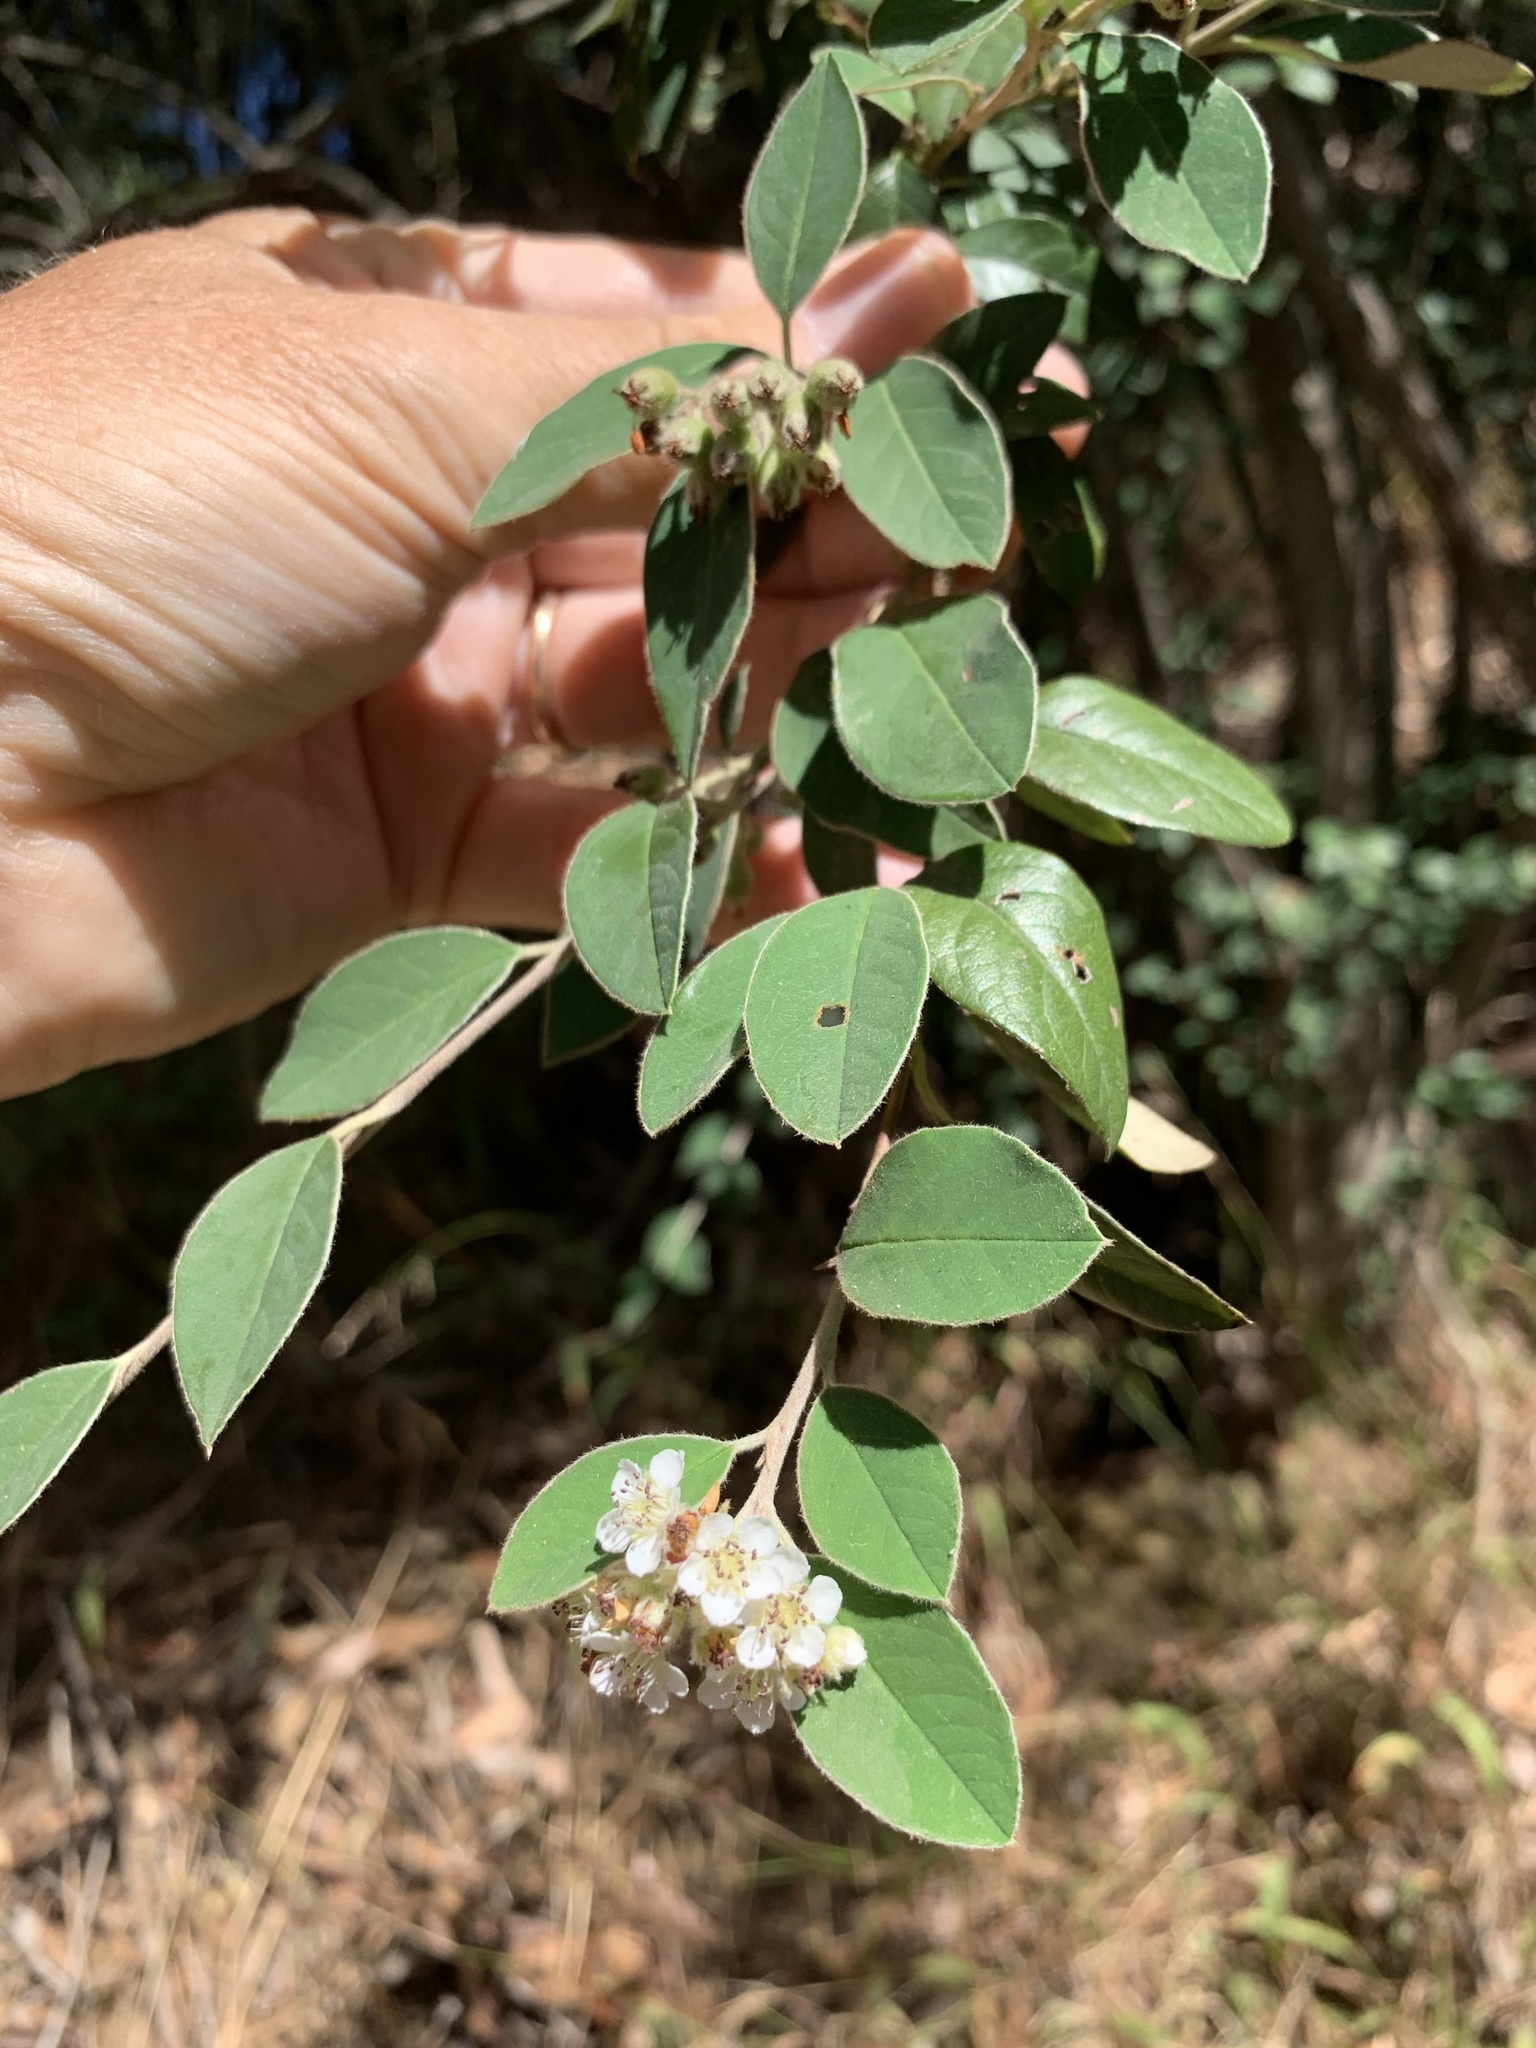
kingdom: Plantae
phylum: Tracheophyta
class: Magnoliopsida
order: Rosales
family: Rosaceae
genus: Cotoneaster
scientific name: Cotoneaster pannosus
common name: Silverleaf cotoneaster
